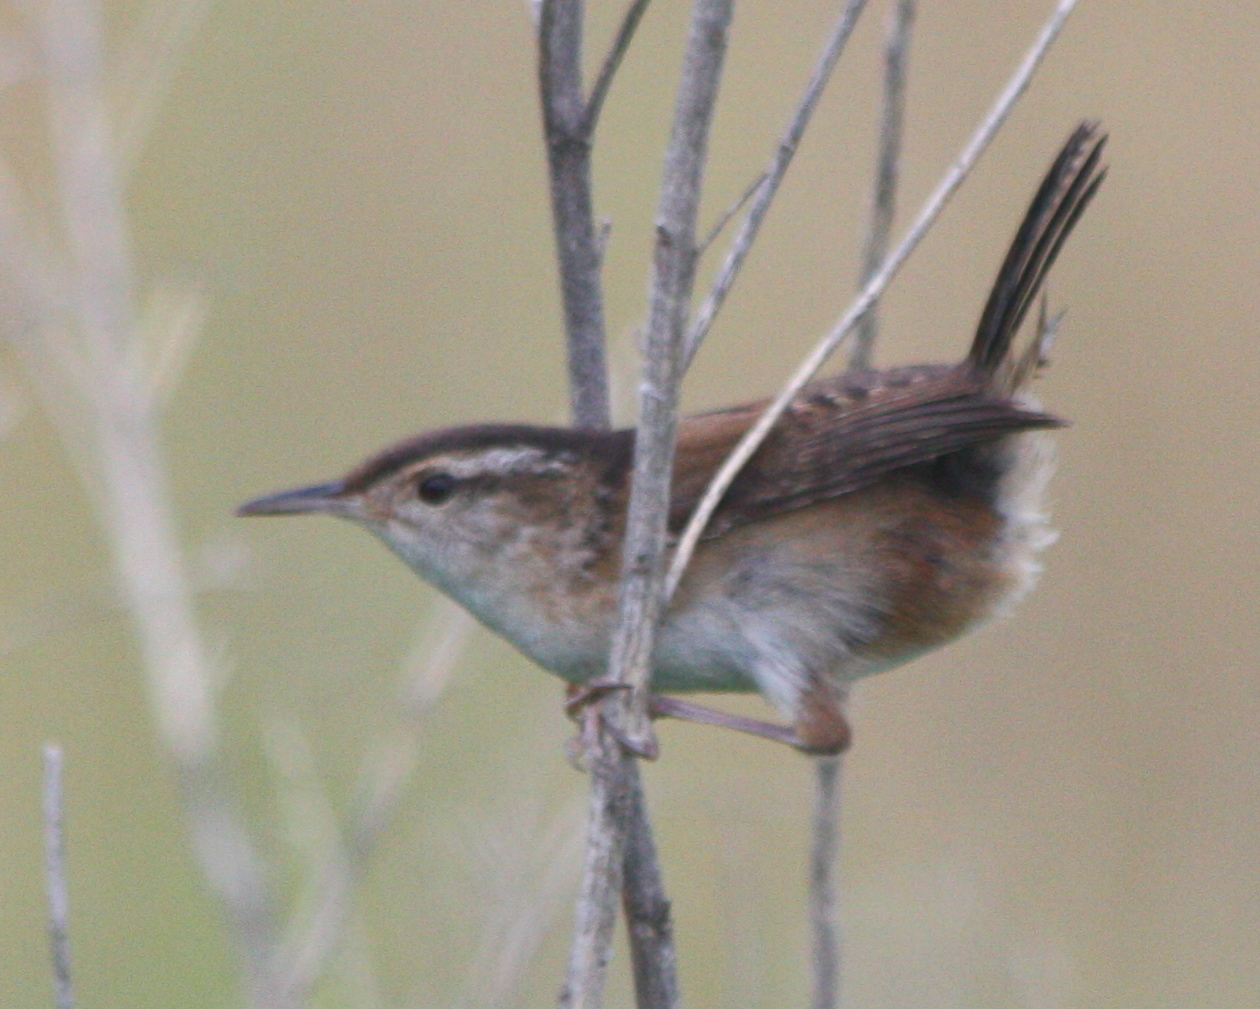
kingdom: Animalia
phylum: Chordata
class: Aves
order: Passeriformes
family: Troglodytidae
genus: Cistothorus
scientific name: Cistothorus palustris
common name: Marsh wren
